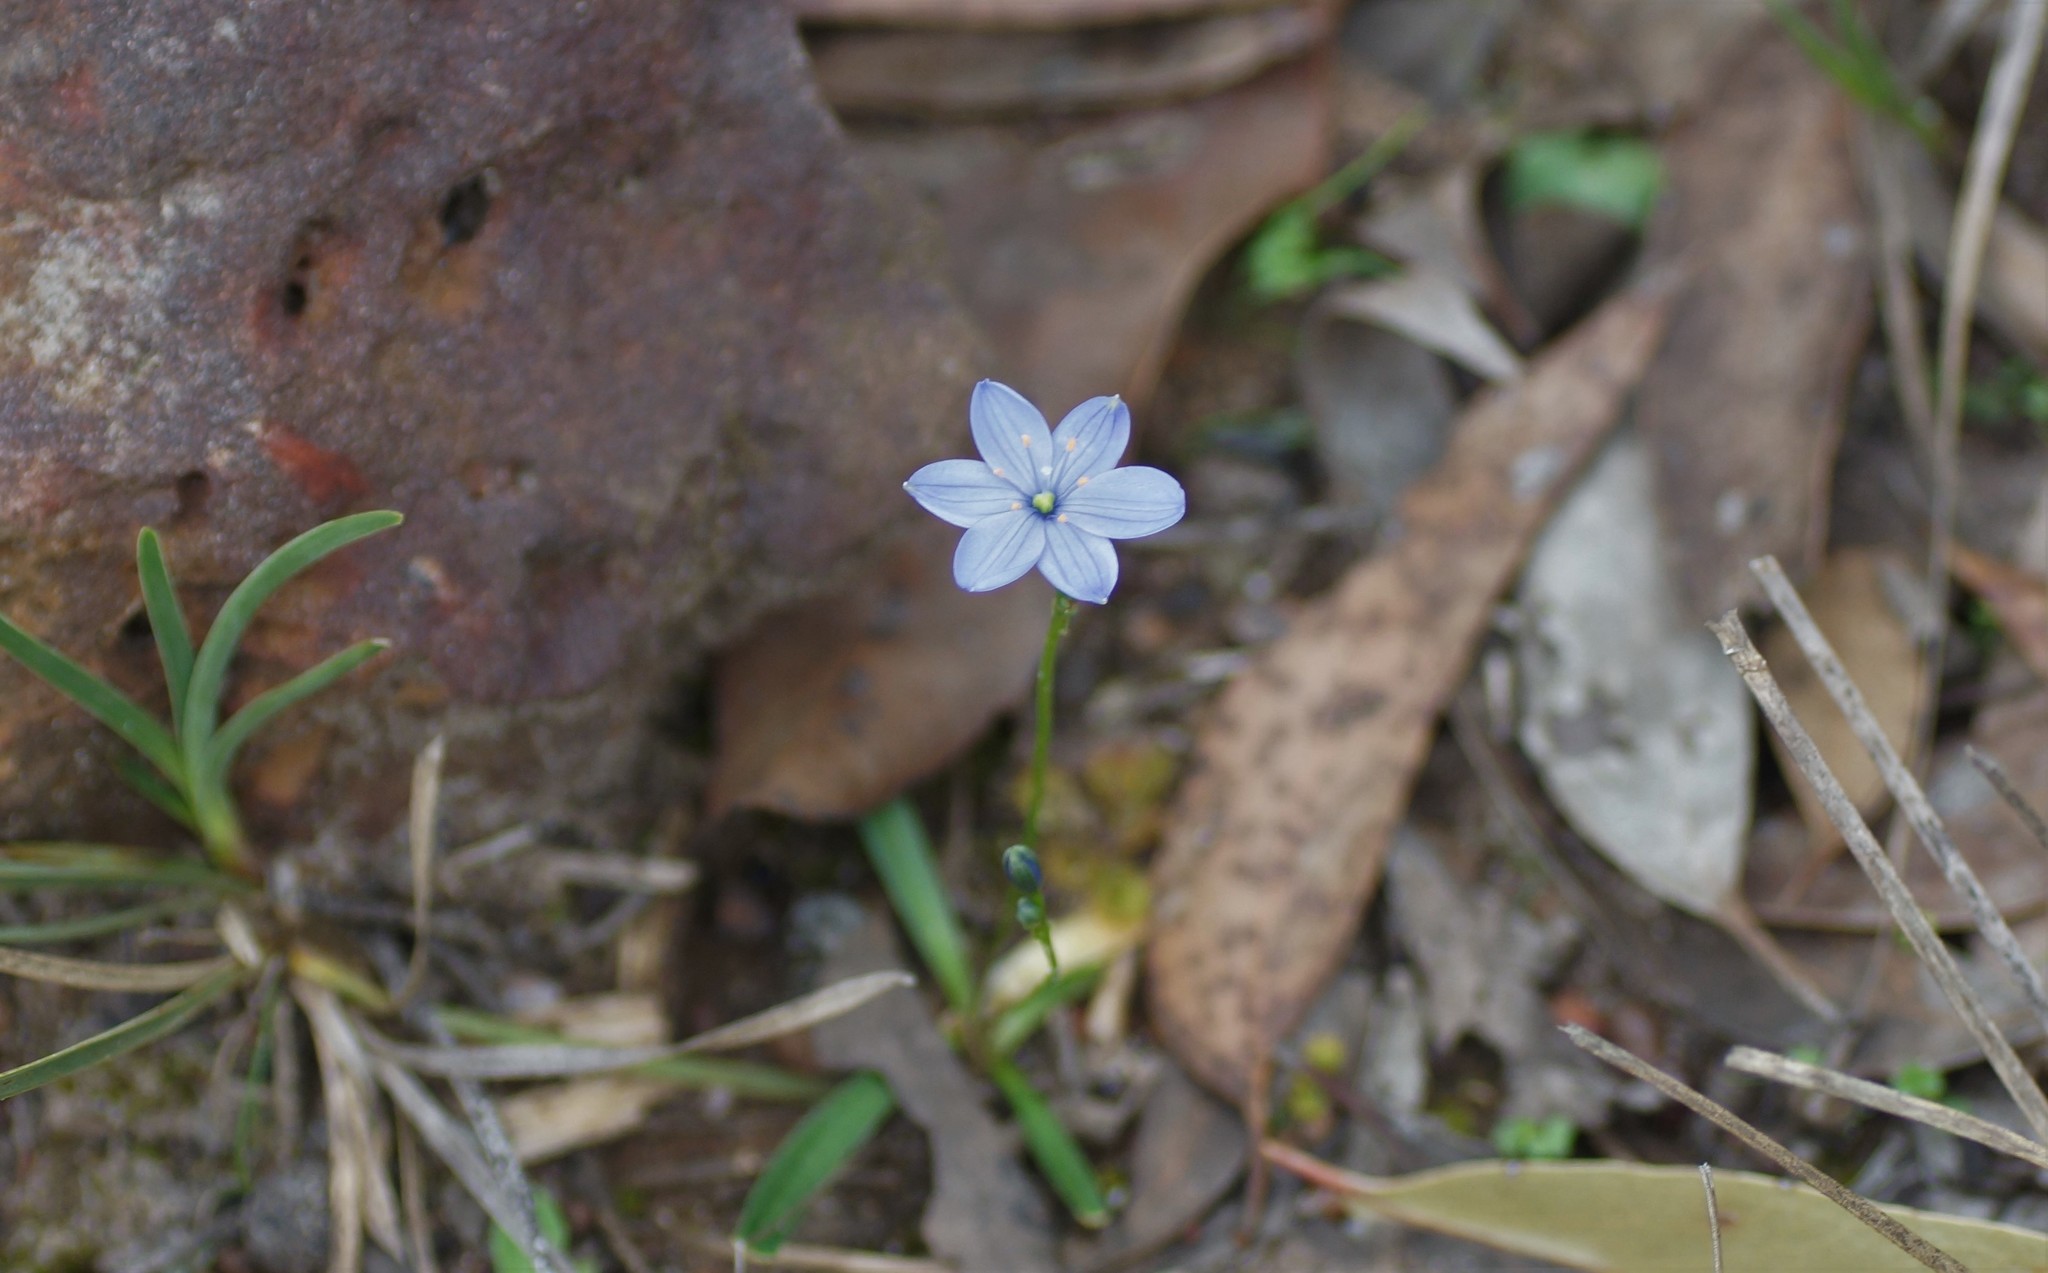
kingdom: Plantae
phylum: Tracheophyta
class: Liliopsida
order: Asparagales
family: Asphodelaceae
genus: Chamaescilla
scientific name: Chamaescilla corymbosa
